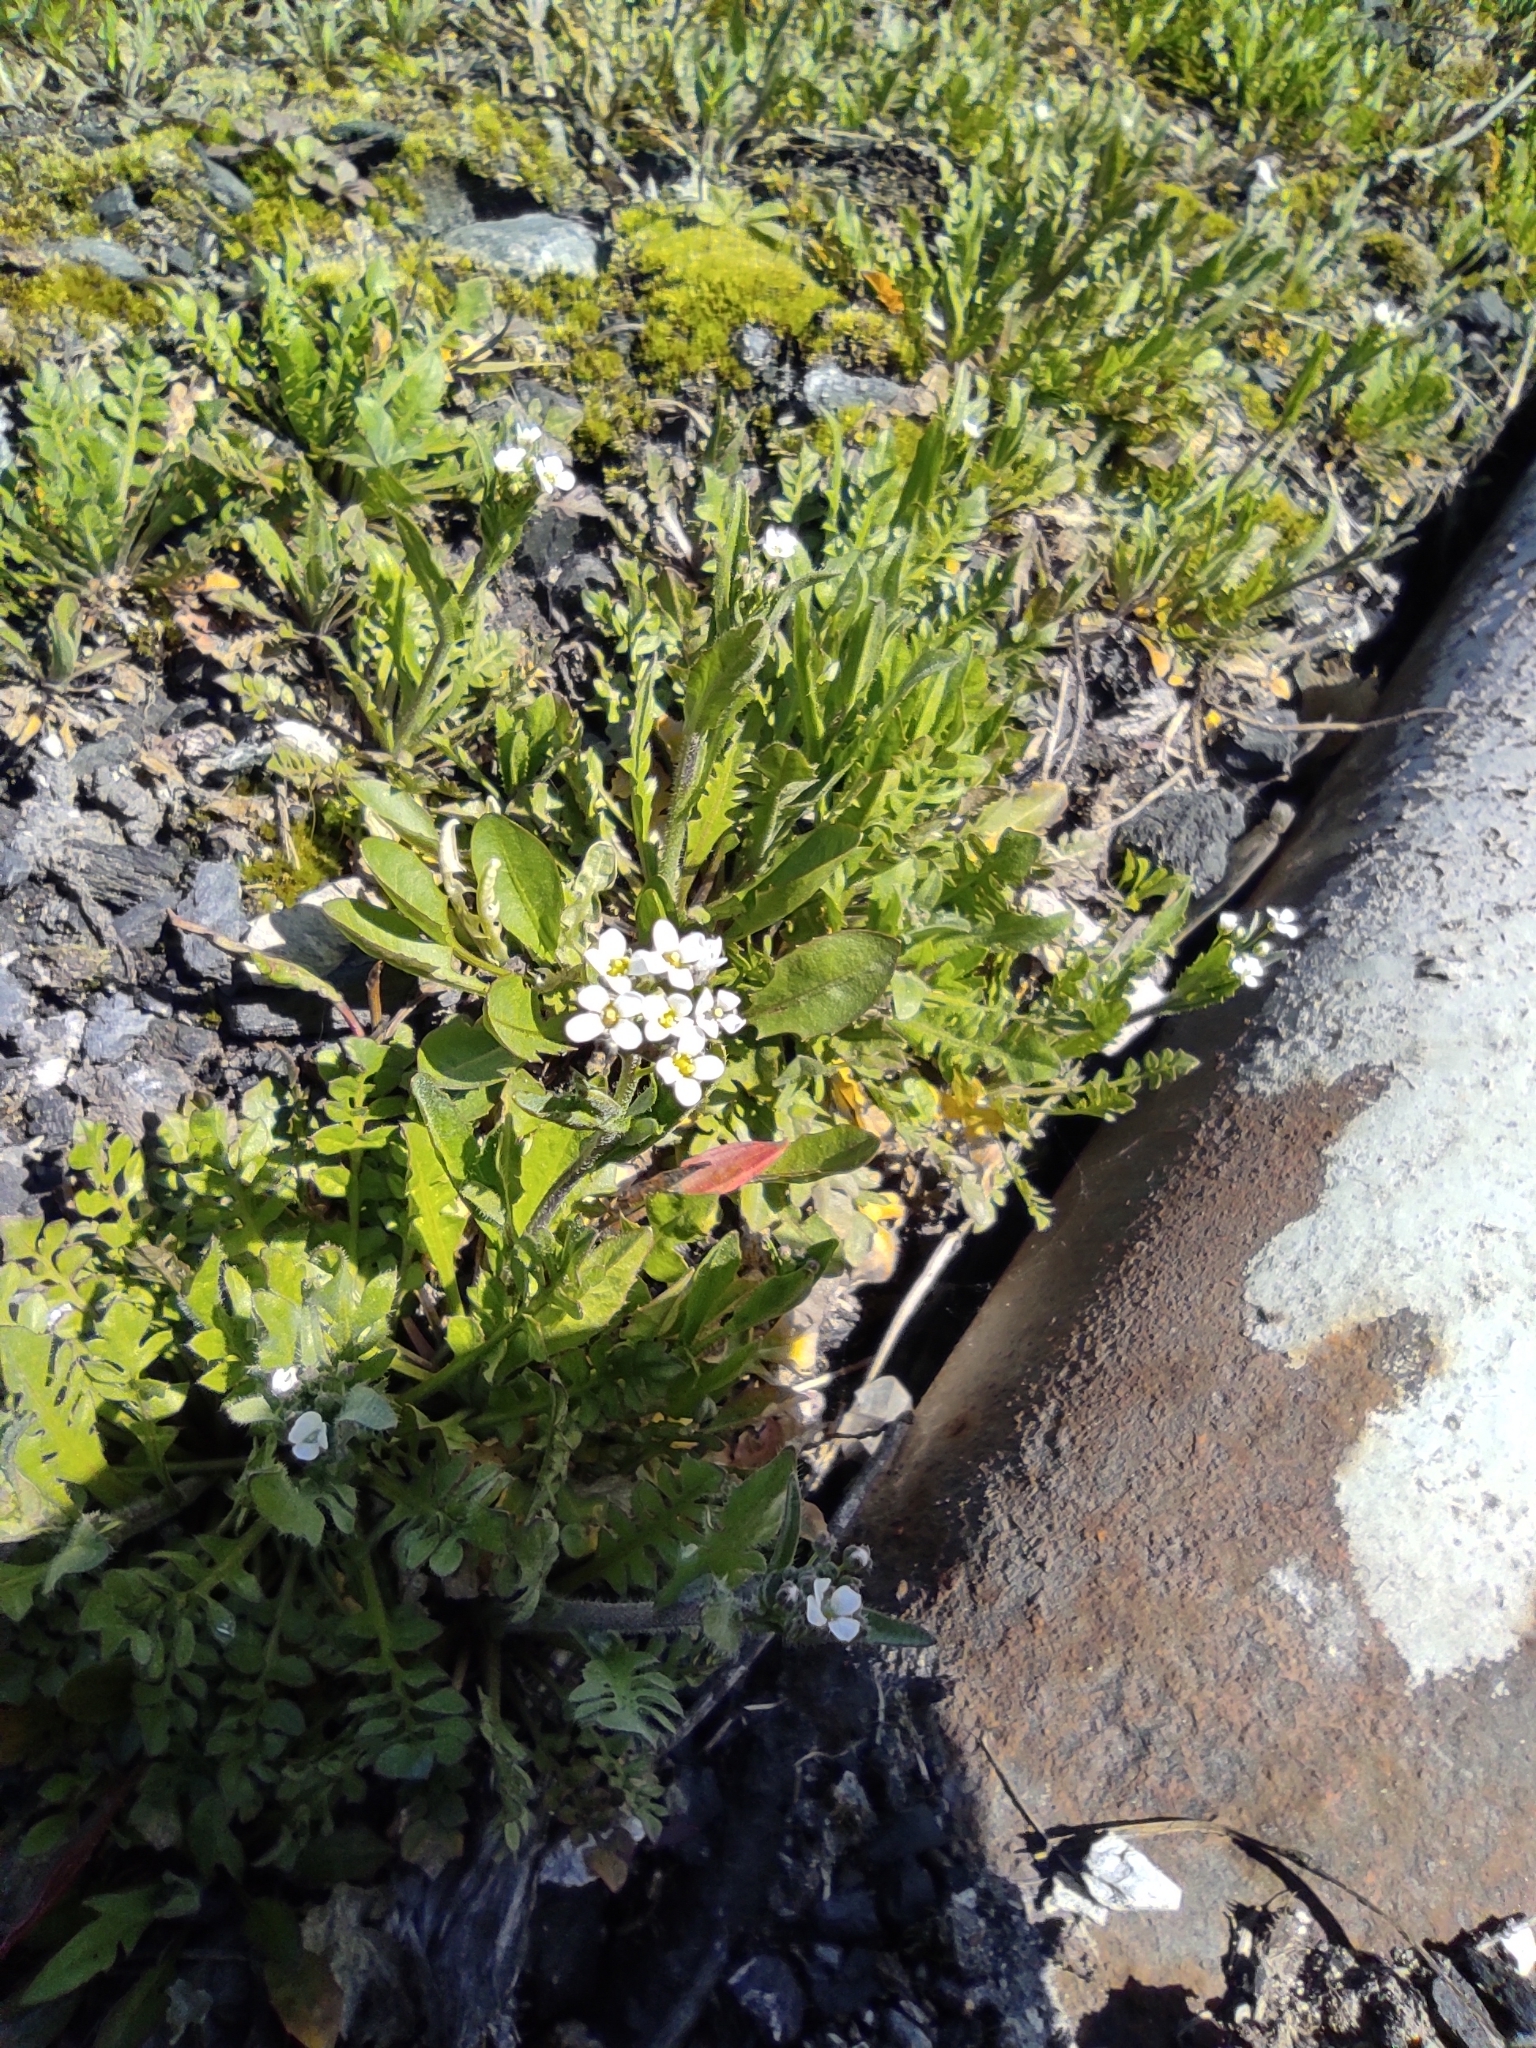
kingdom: Plantae
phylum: Tracheophyta
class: Magnoliopsida
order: Brassicales
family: Brassicaceae
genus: Capsella
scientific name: Capsella bursa-pastoris
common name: Shepherd's purse
